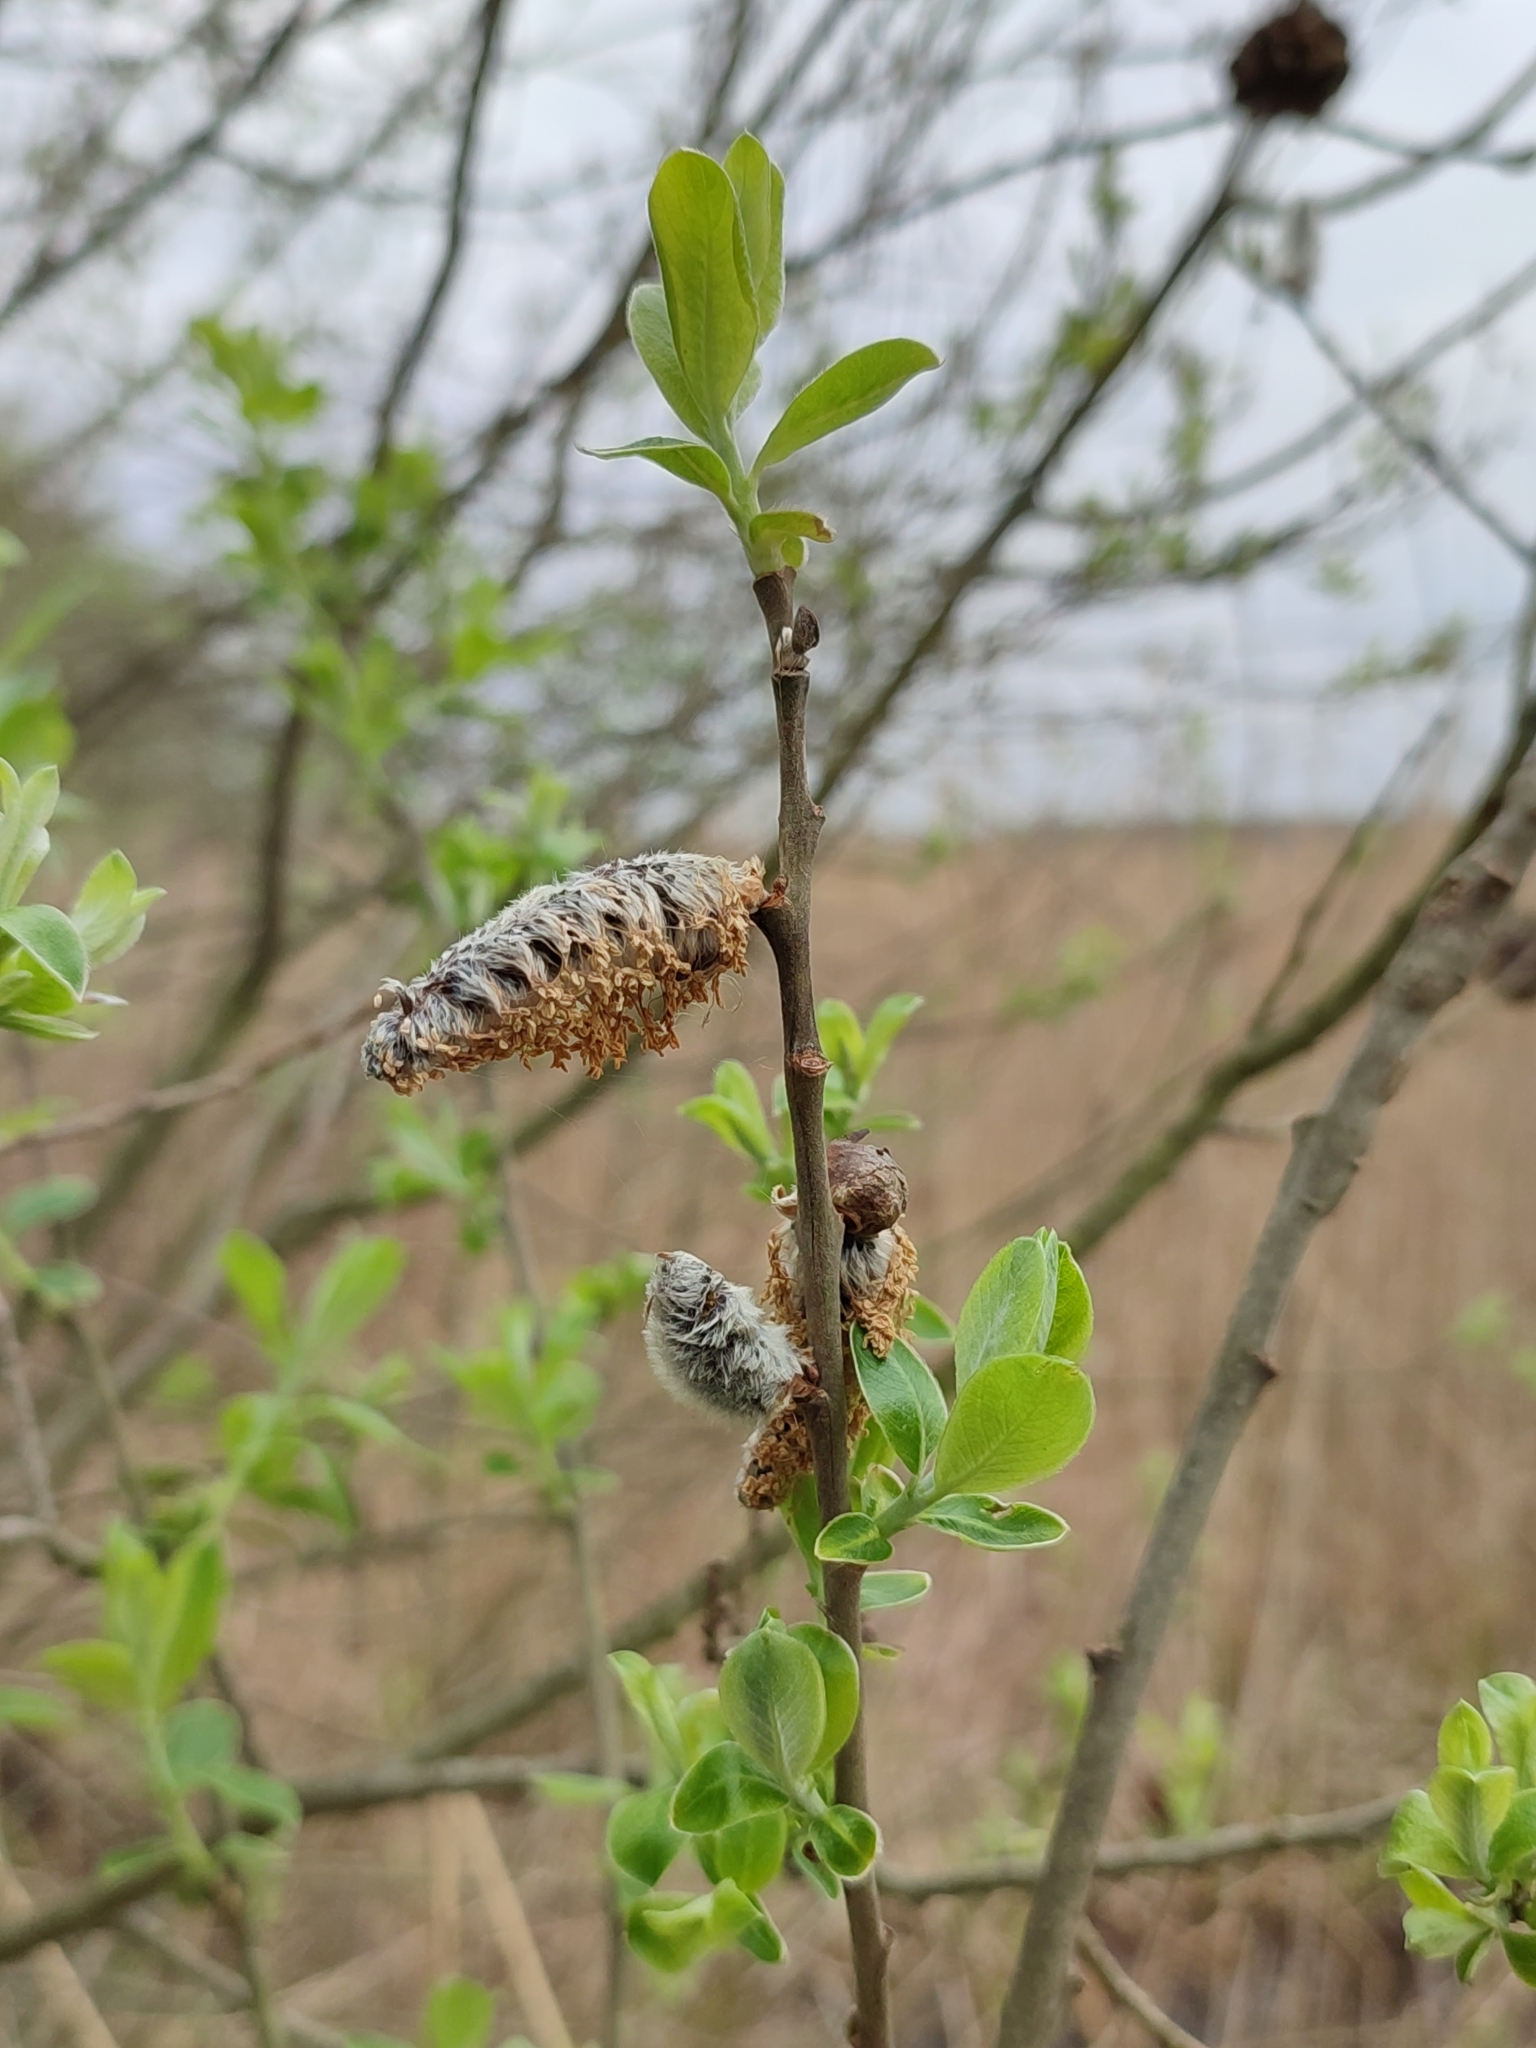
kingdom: Plantae
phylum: Tracheophyta
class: Magnoliopsida
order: Malpighiales
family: Salicaceae
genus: Salix
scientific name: Salix cinerea
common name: Common sallow
